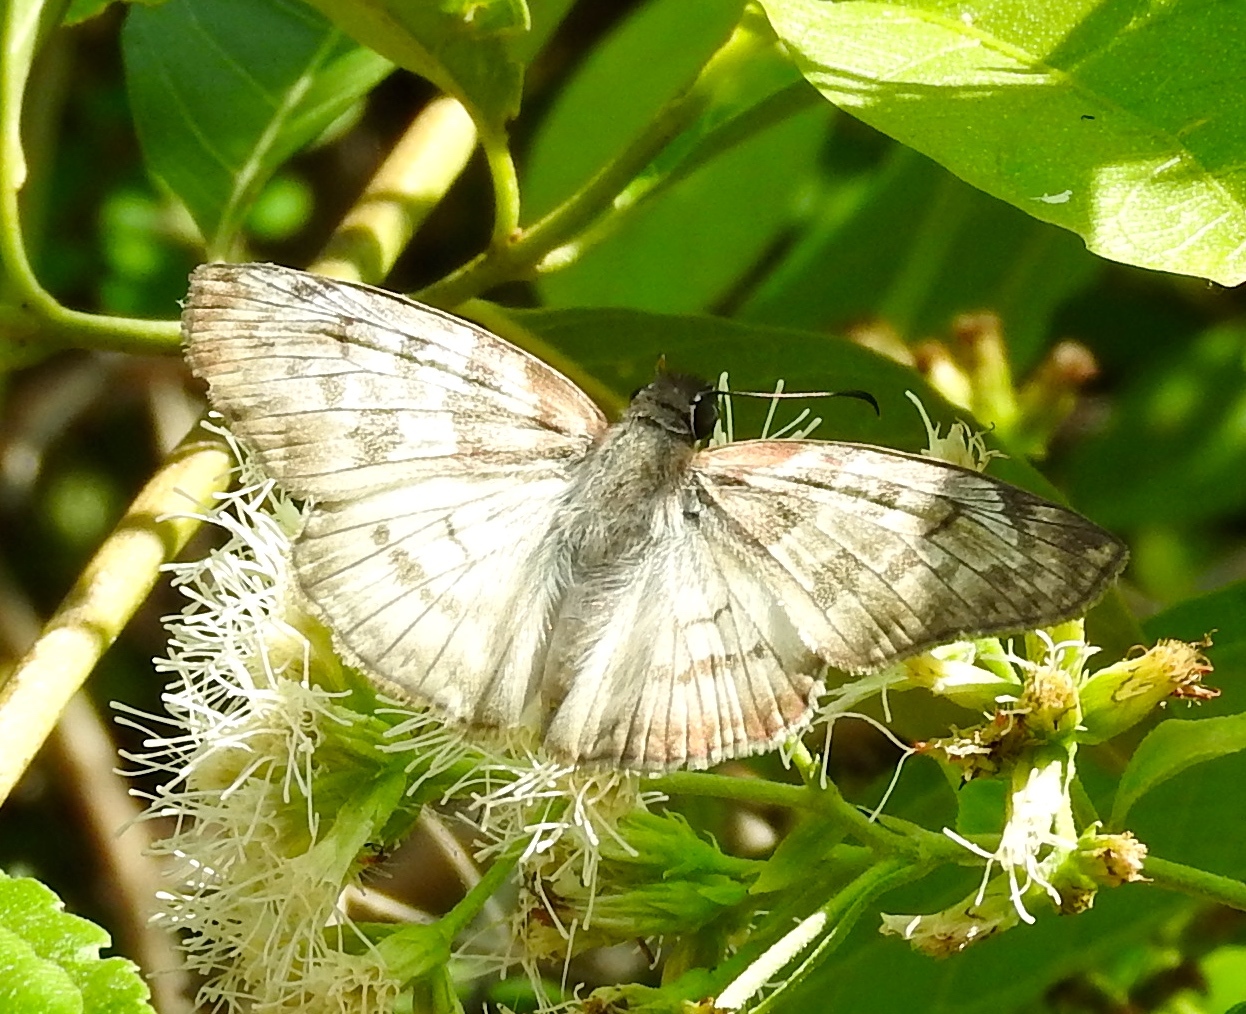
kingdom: Animalia
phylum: Arthropoda
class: Insecta
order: Lepidoptera
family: Hesperiidae
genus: Mylon
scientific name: Mylon pelopidas
